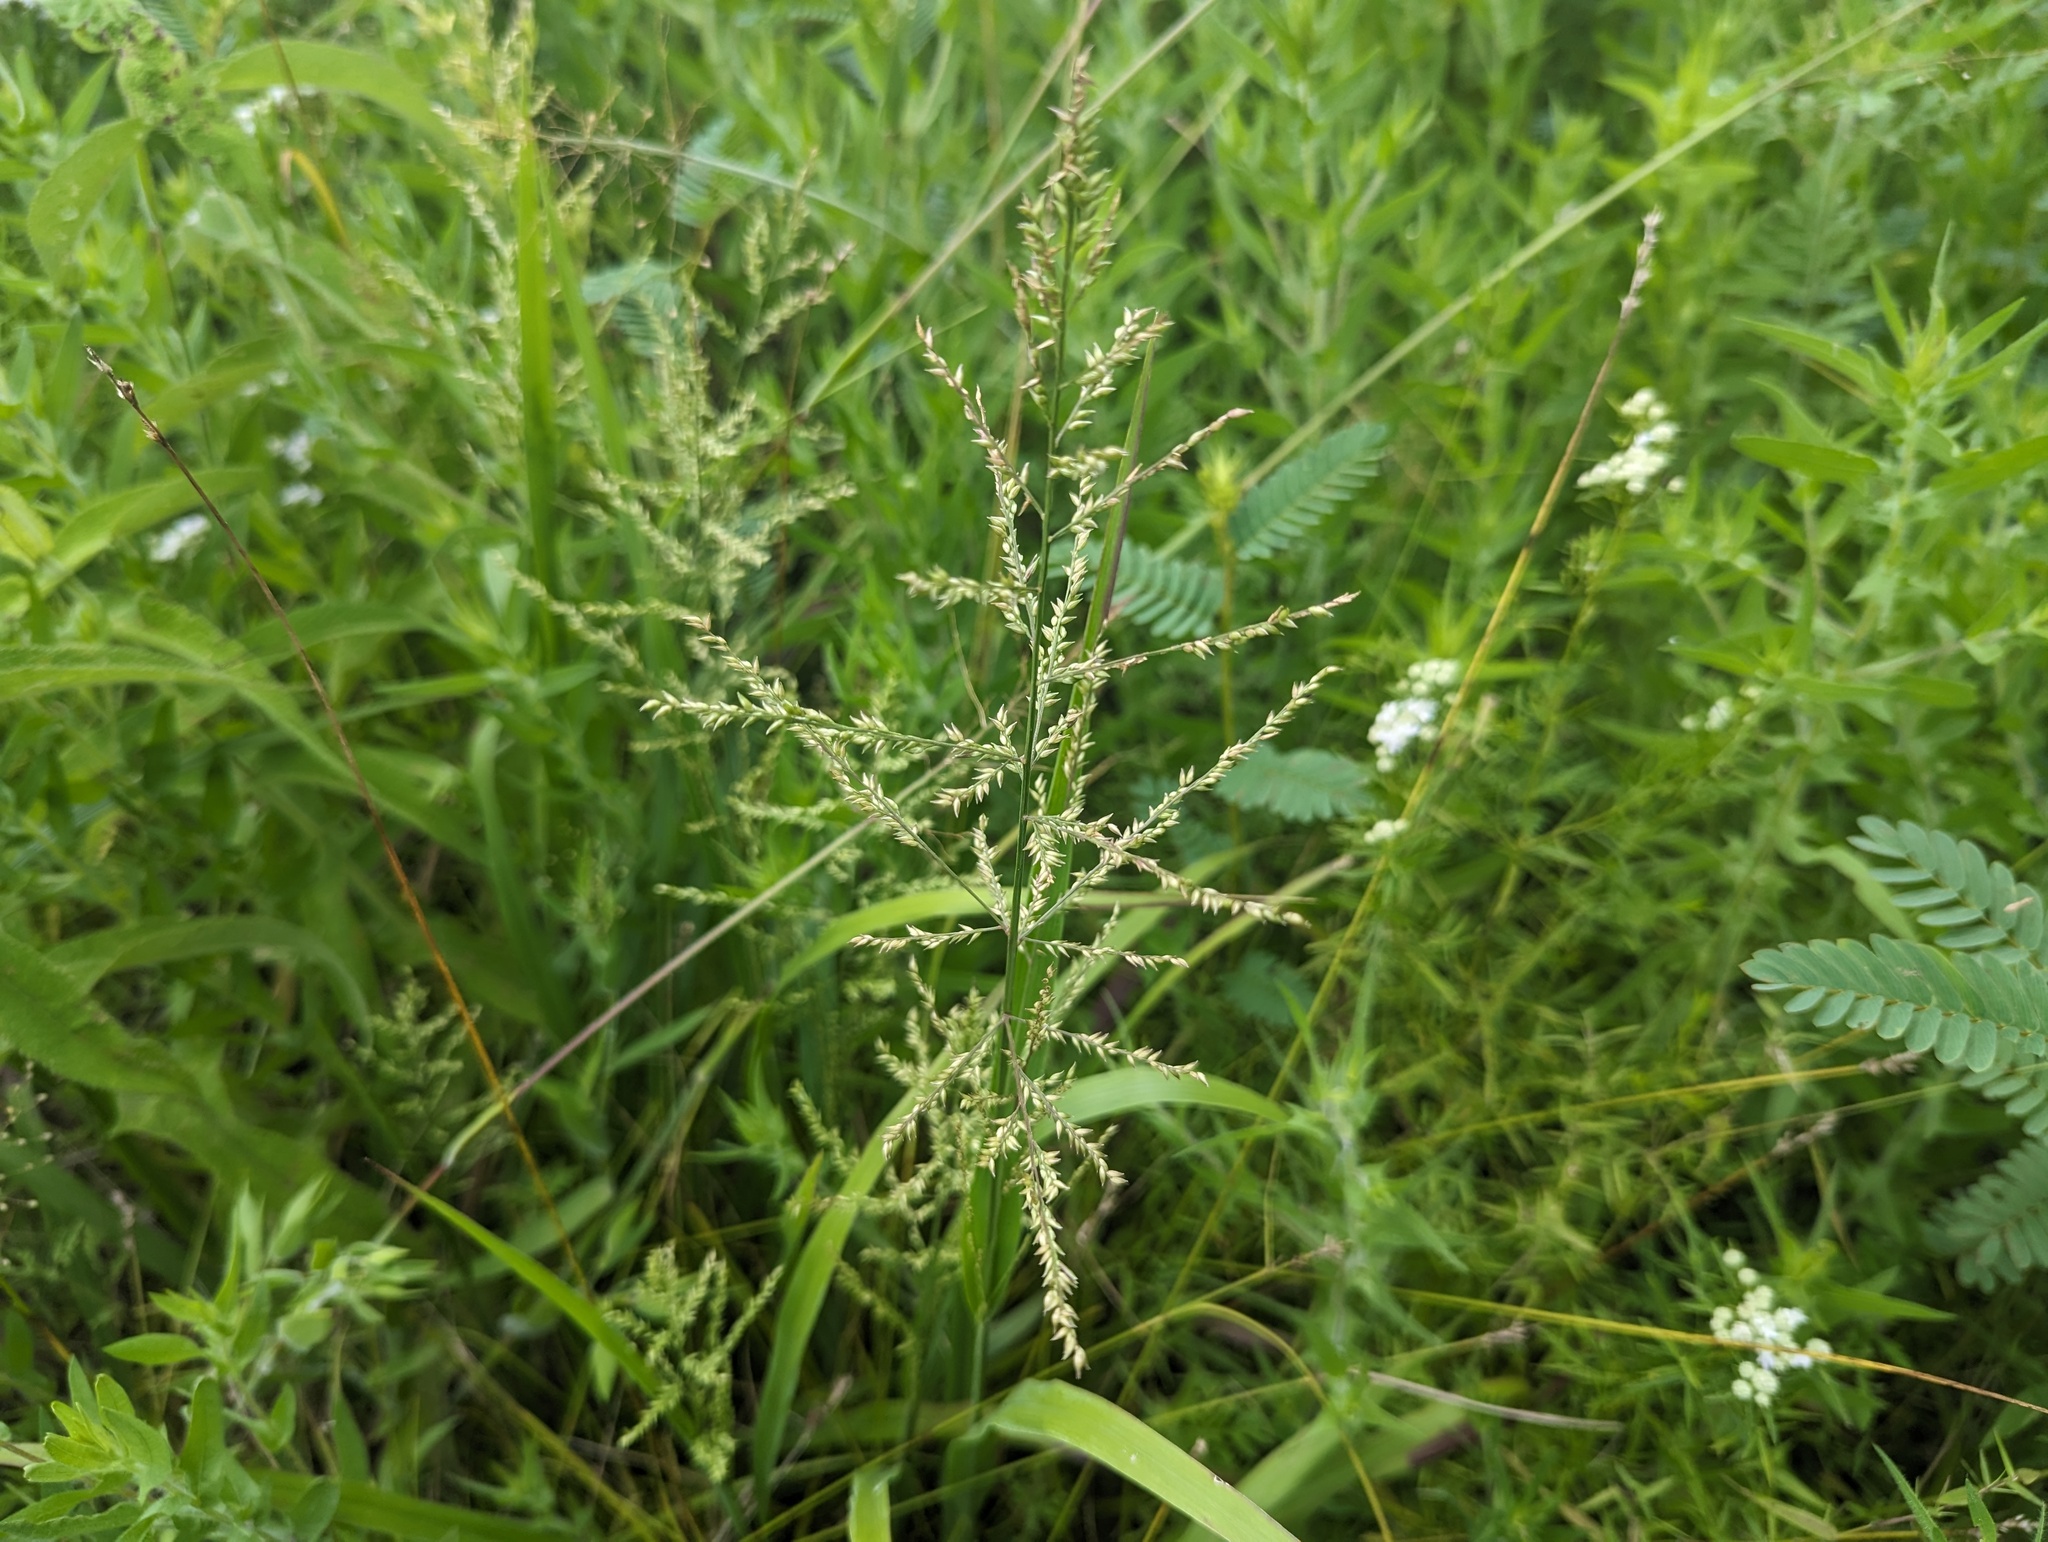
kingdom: Plantae
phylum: Tracheophyta
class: Liliopsida
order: Poales
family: Poaceae
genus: Coleataenia
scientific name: Coleataenia anceps
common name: Beaked panic grass
